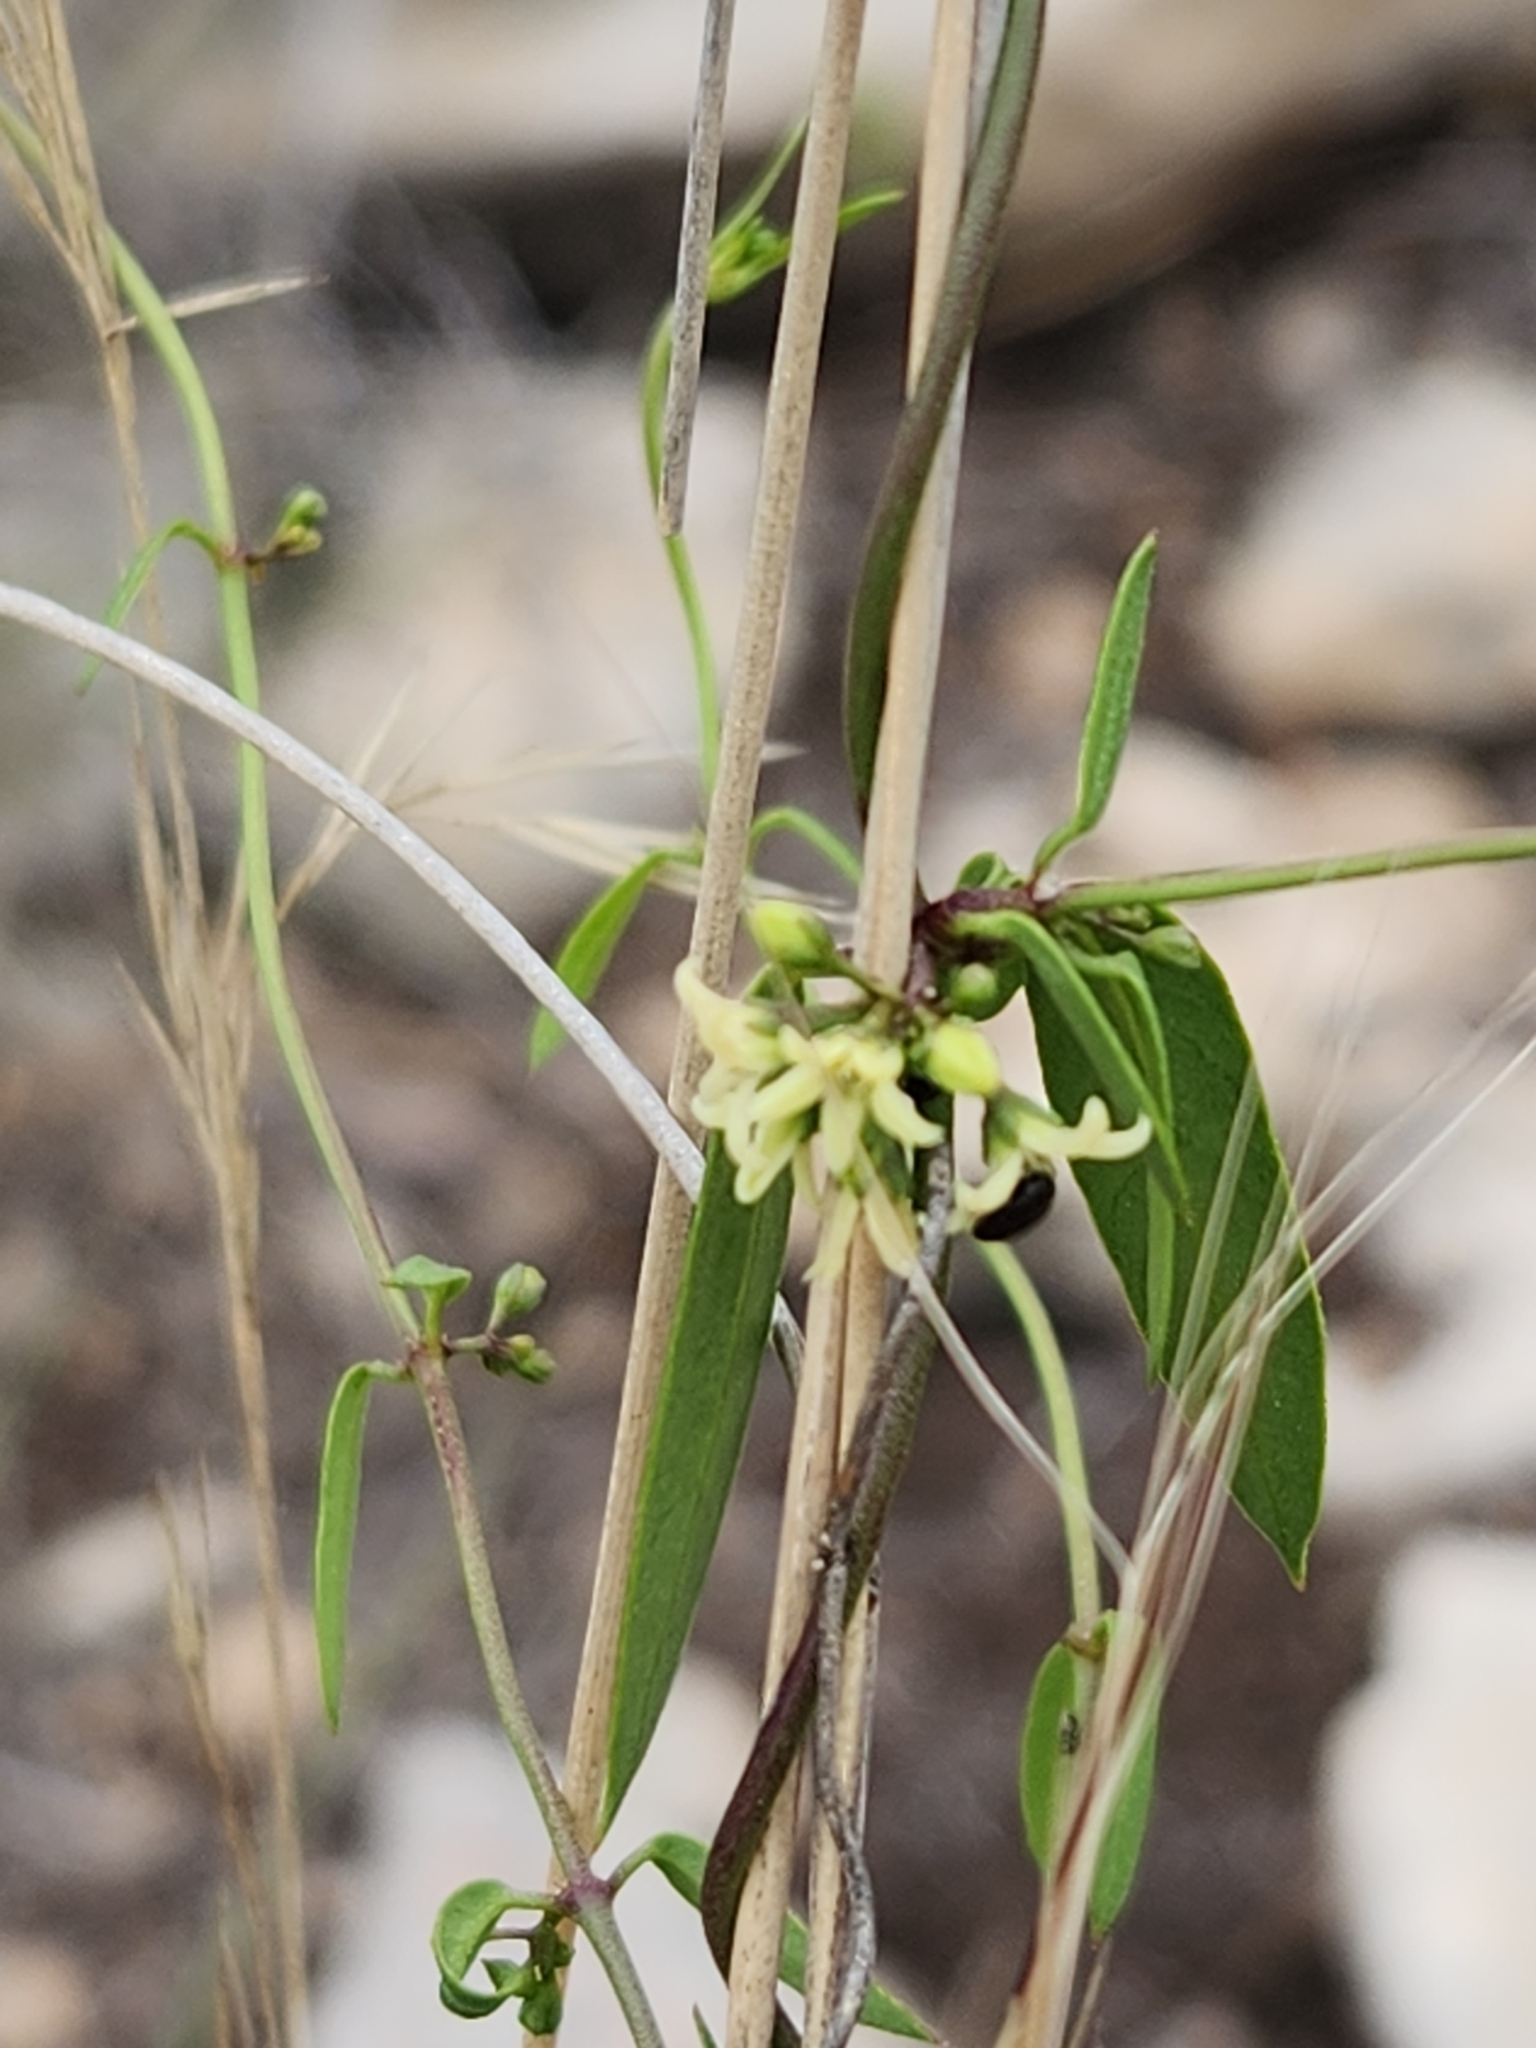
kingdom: Plantae
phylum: Tracheophyta
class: Magnoliopsida
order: Gentianales
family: Apocynaceae
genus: Metastelma
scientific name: Metastelma palmeri
